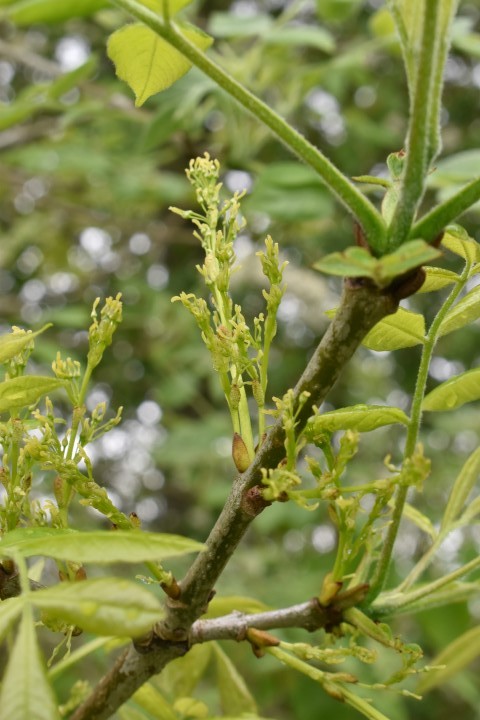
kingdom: Plantae
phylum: Tracheophyta
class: Magnoliopsida
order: Lamiales
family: Oleaceae
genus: Fraxinus
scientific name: Fraxinus latifolia
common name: Oregon ash
